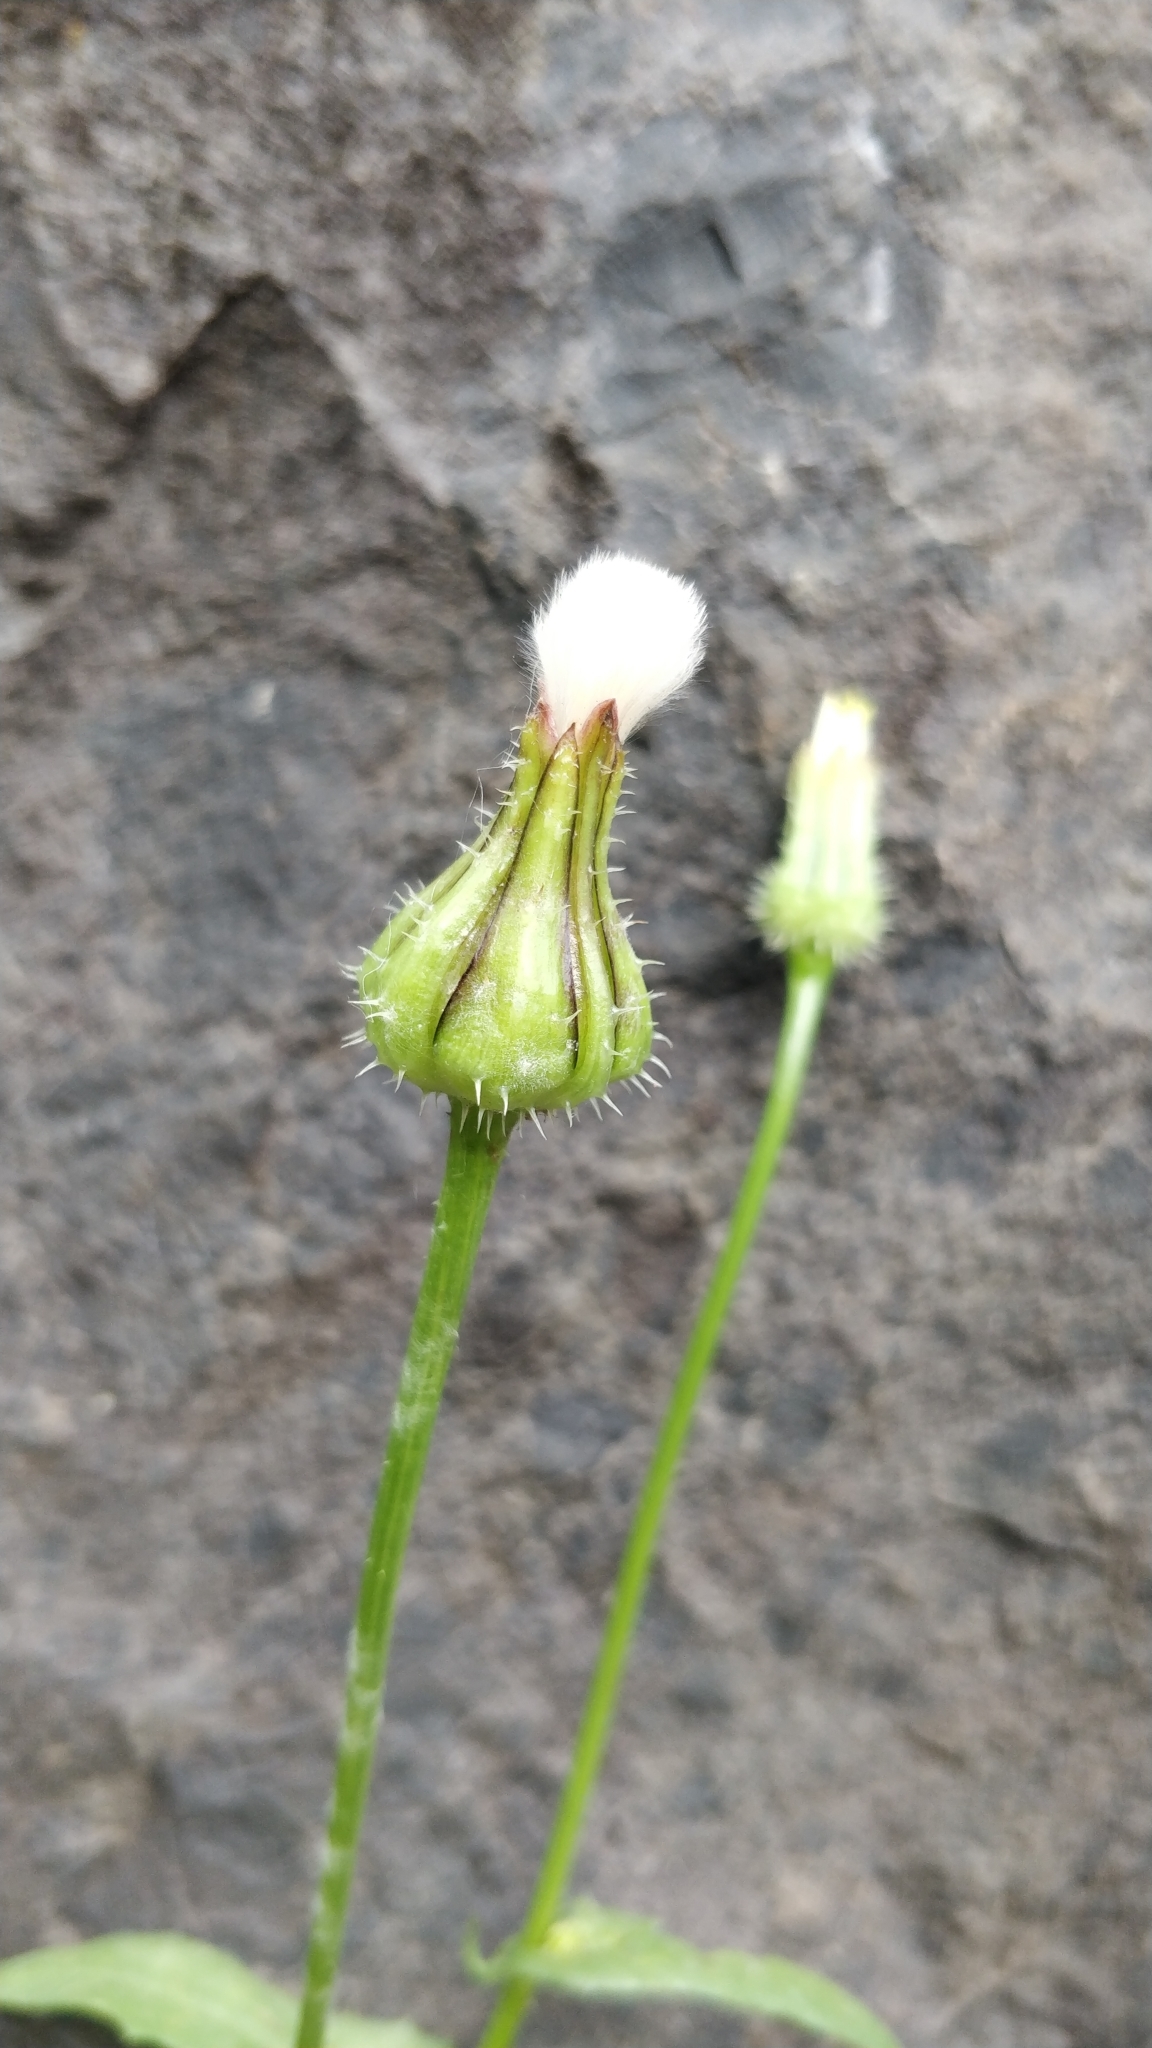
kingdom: Plantae
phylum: Tracheophyta
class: Magnoliopsida
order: Asterales
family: Asteraceae
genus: Urospermum
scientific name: Urospermum picroides
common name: False hawkbit
